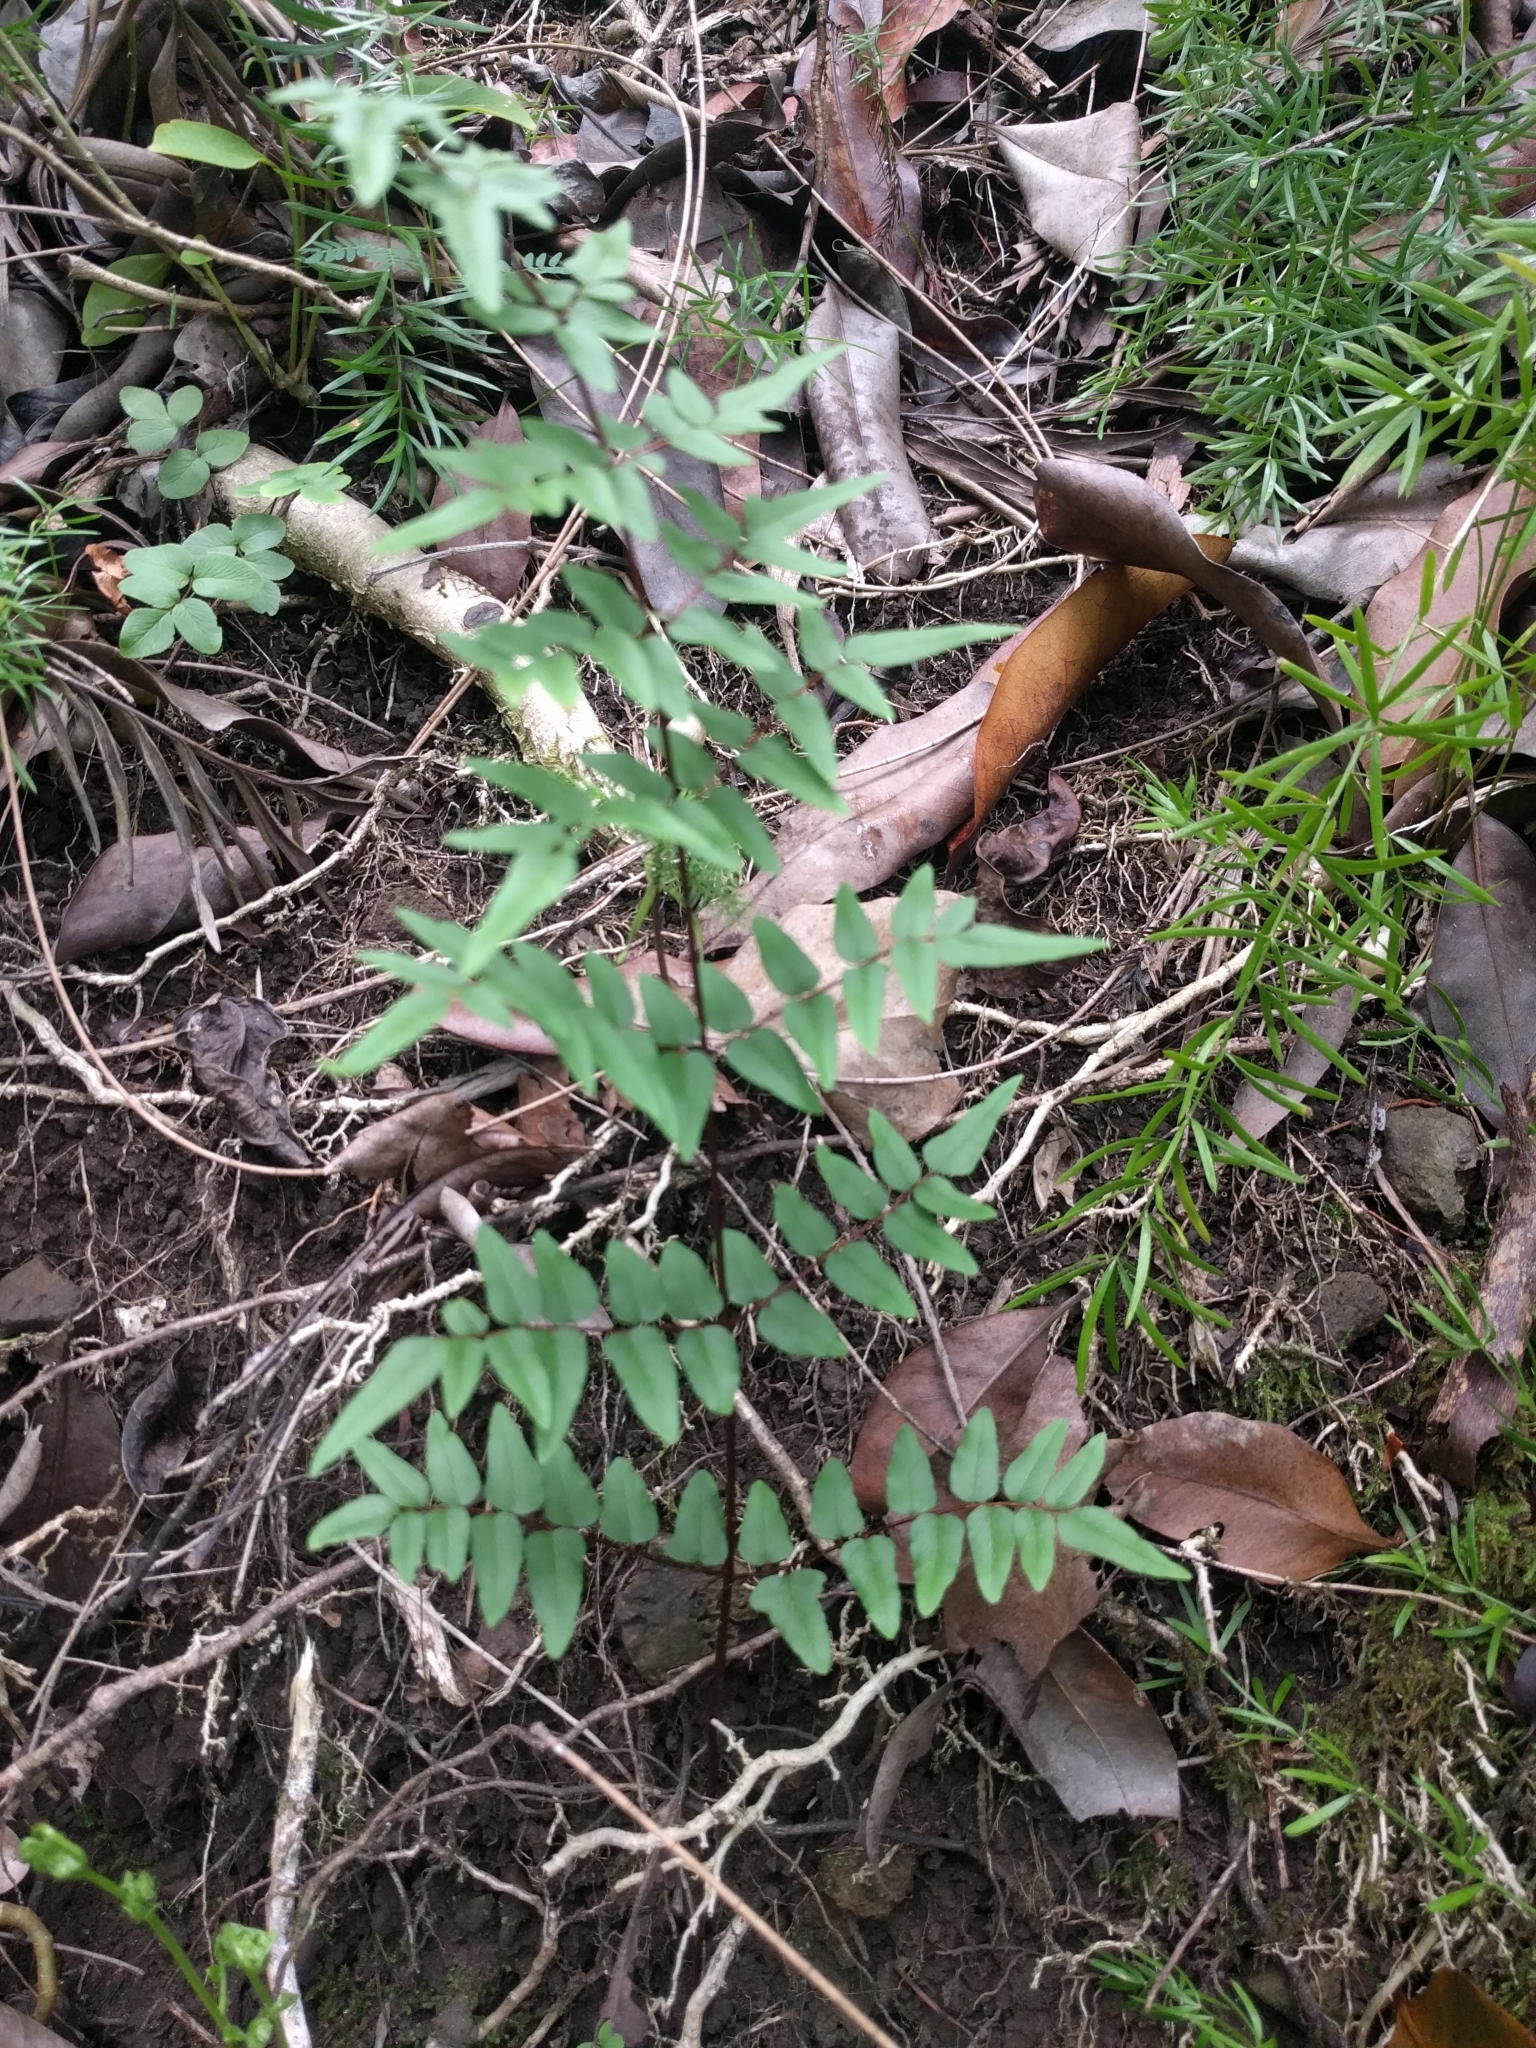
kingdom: Plantae
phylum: Tracheophyta
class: Polypodiopsida
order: Polypodiales
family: Pteridaceae
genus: Cheilanthes
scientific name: Cheilanthes viridis
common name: Green cliffbrake
